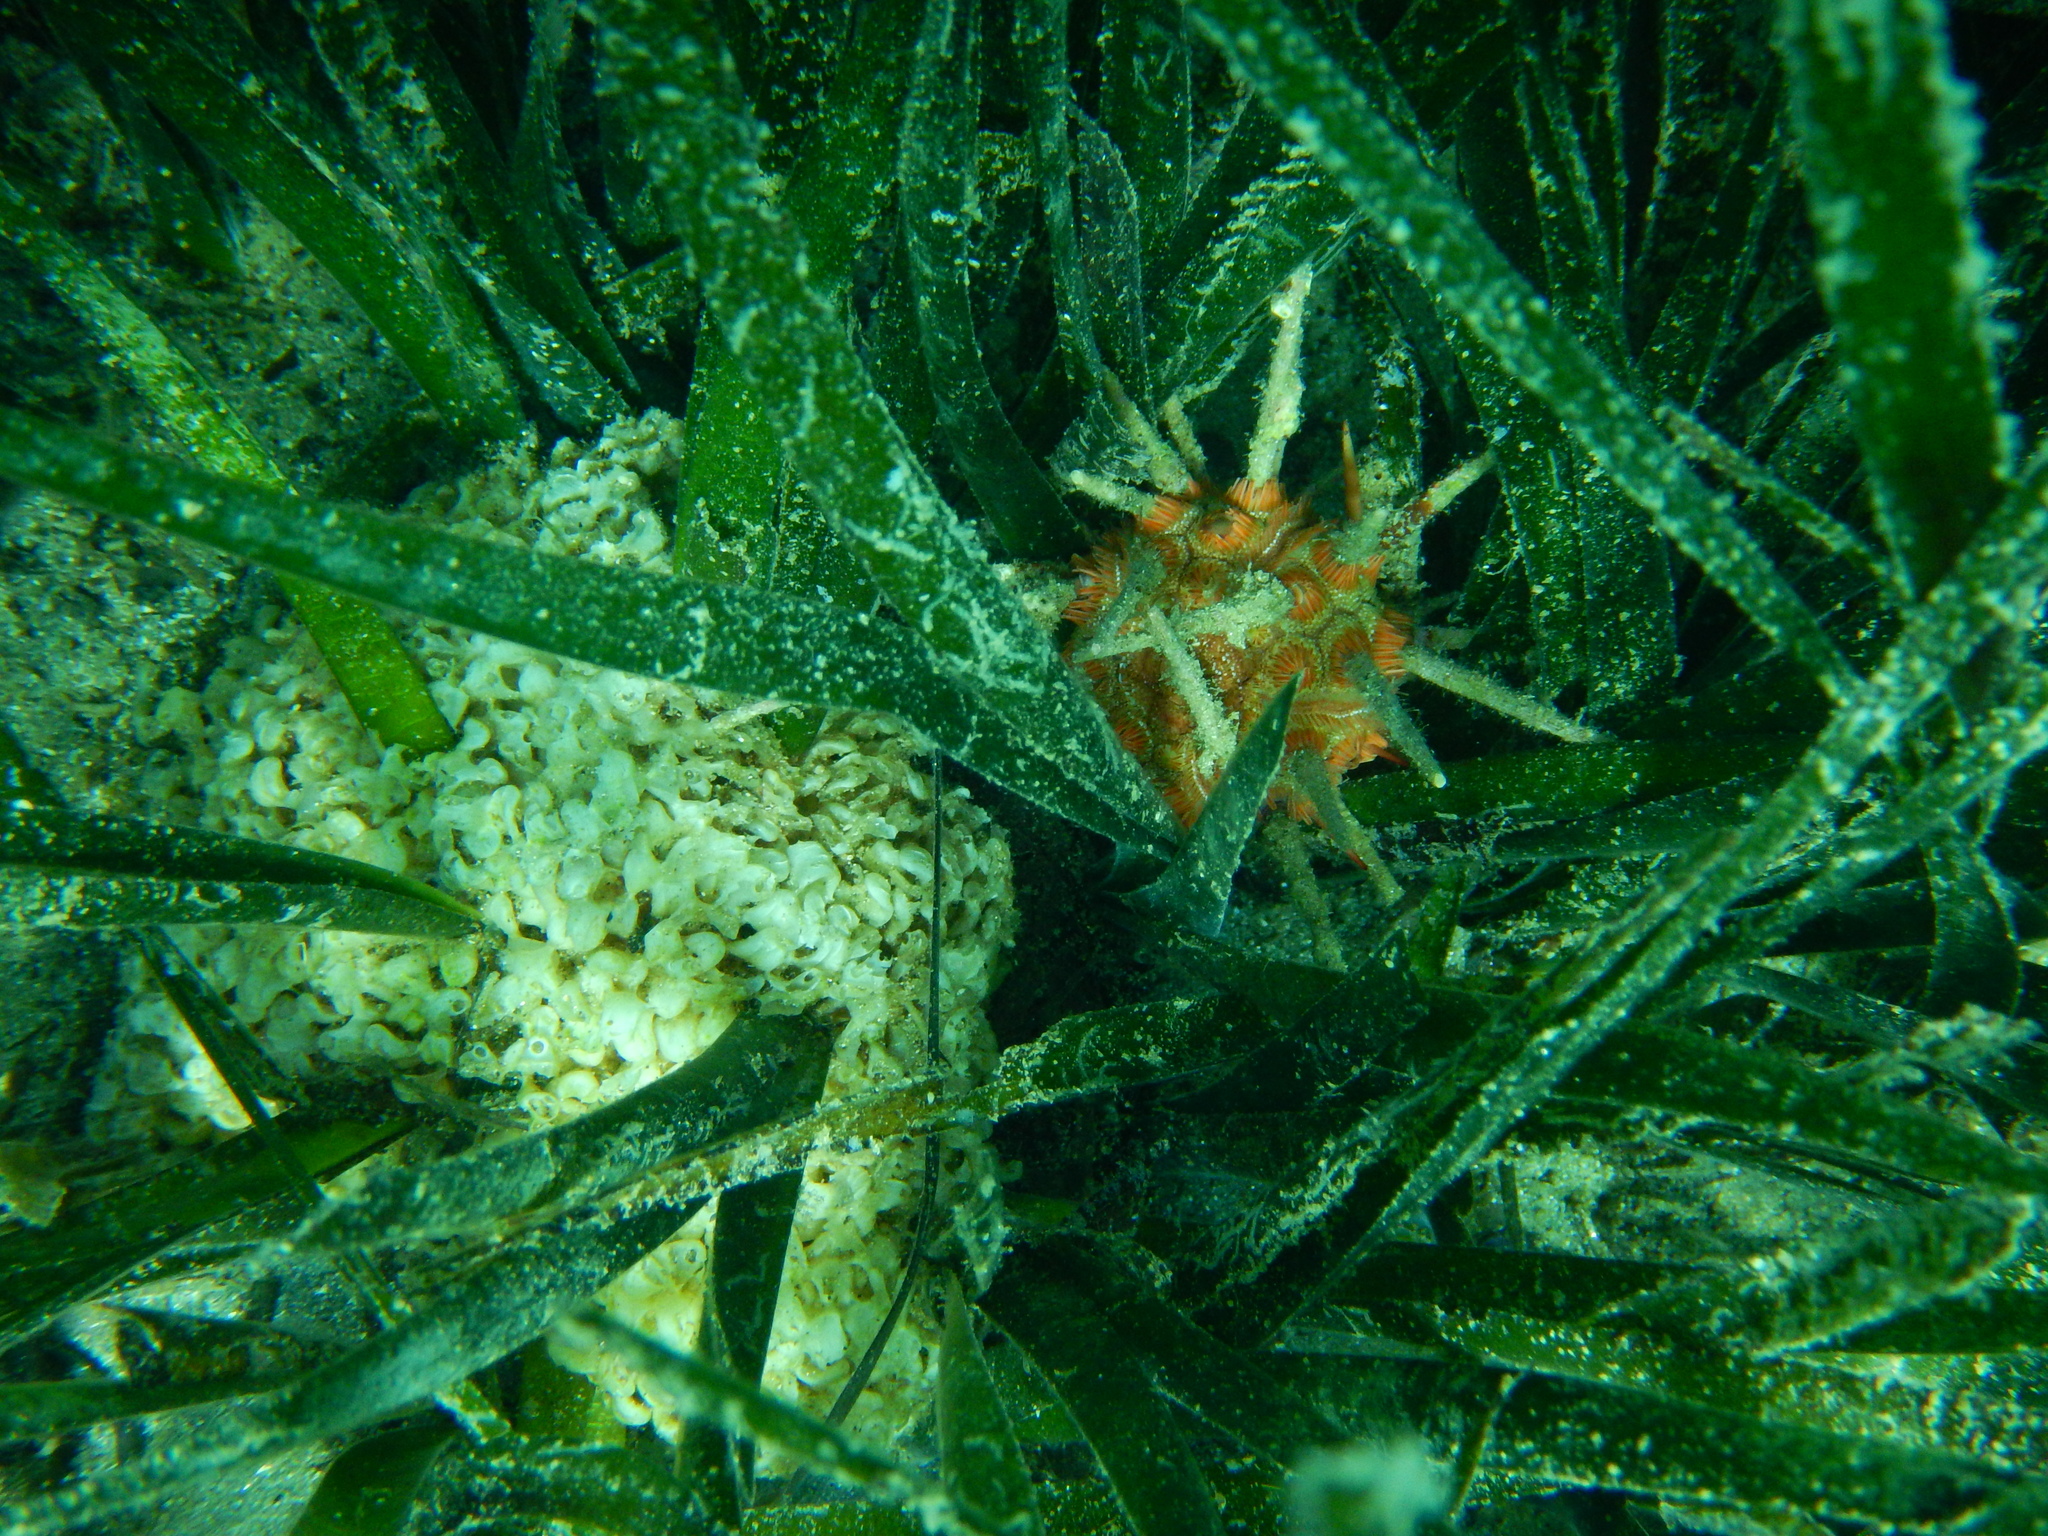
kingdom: Animalia
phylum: Echinodermata
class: Echinoidea
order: Cidaroida
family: Cidaridae
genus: Stylocidaris
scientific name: Stylocidaris affinis
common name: Red lance urchin
